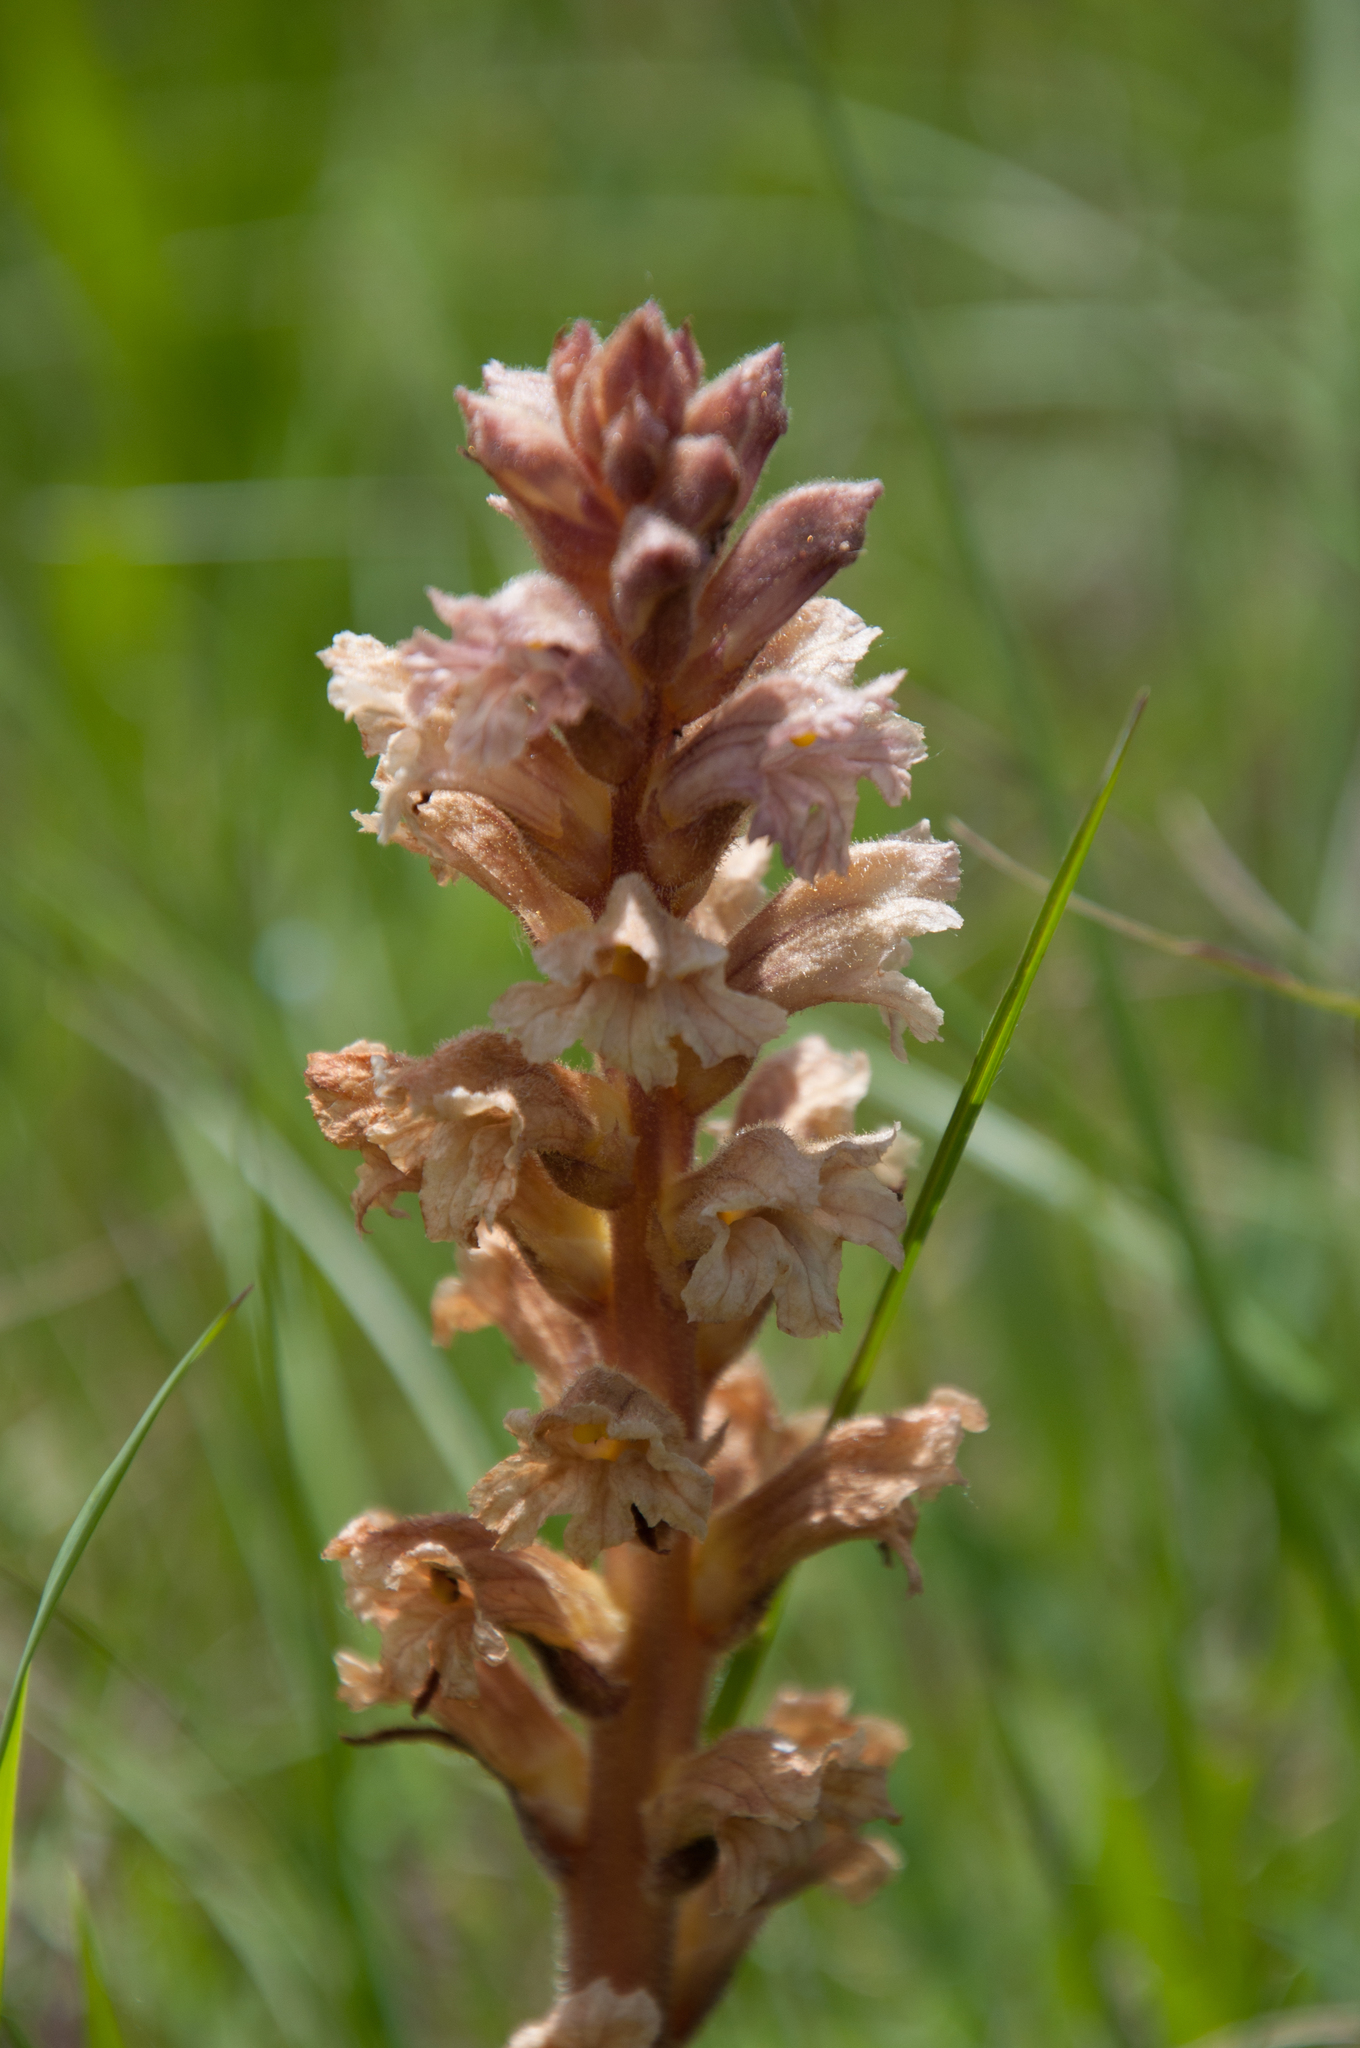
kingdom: Plantae
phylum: Tracheophyta
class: Magnoliopsida
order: Lamiales
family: Orobanchaceae
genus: Orobanche
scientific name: Orobanche lutea
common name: Yellow broomrape
